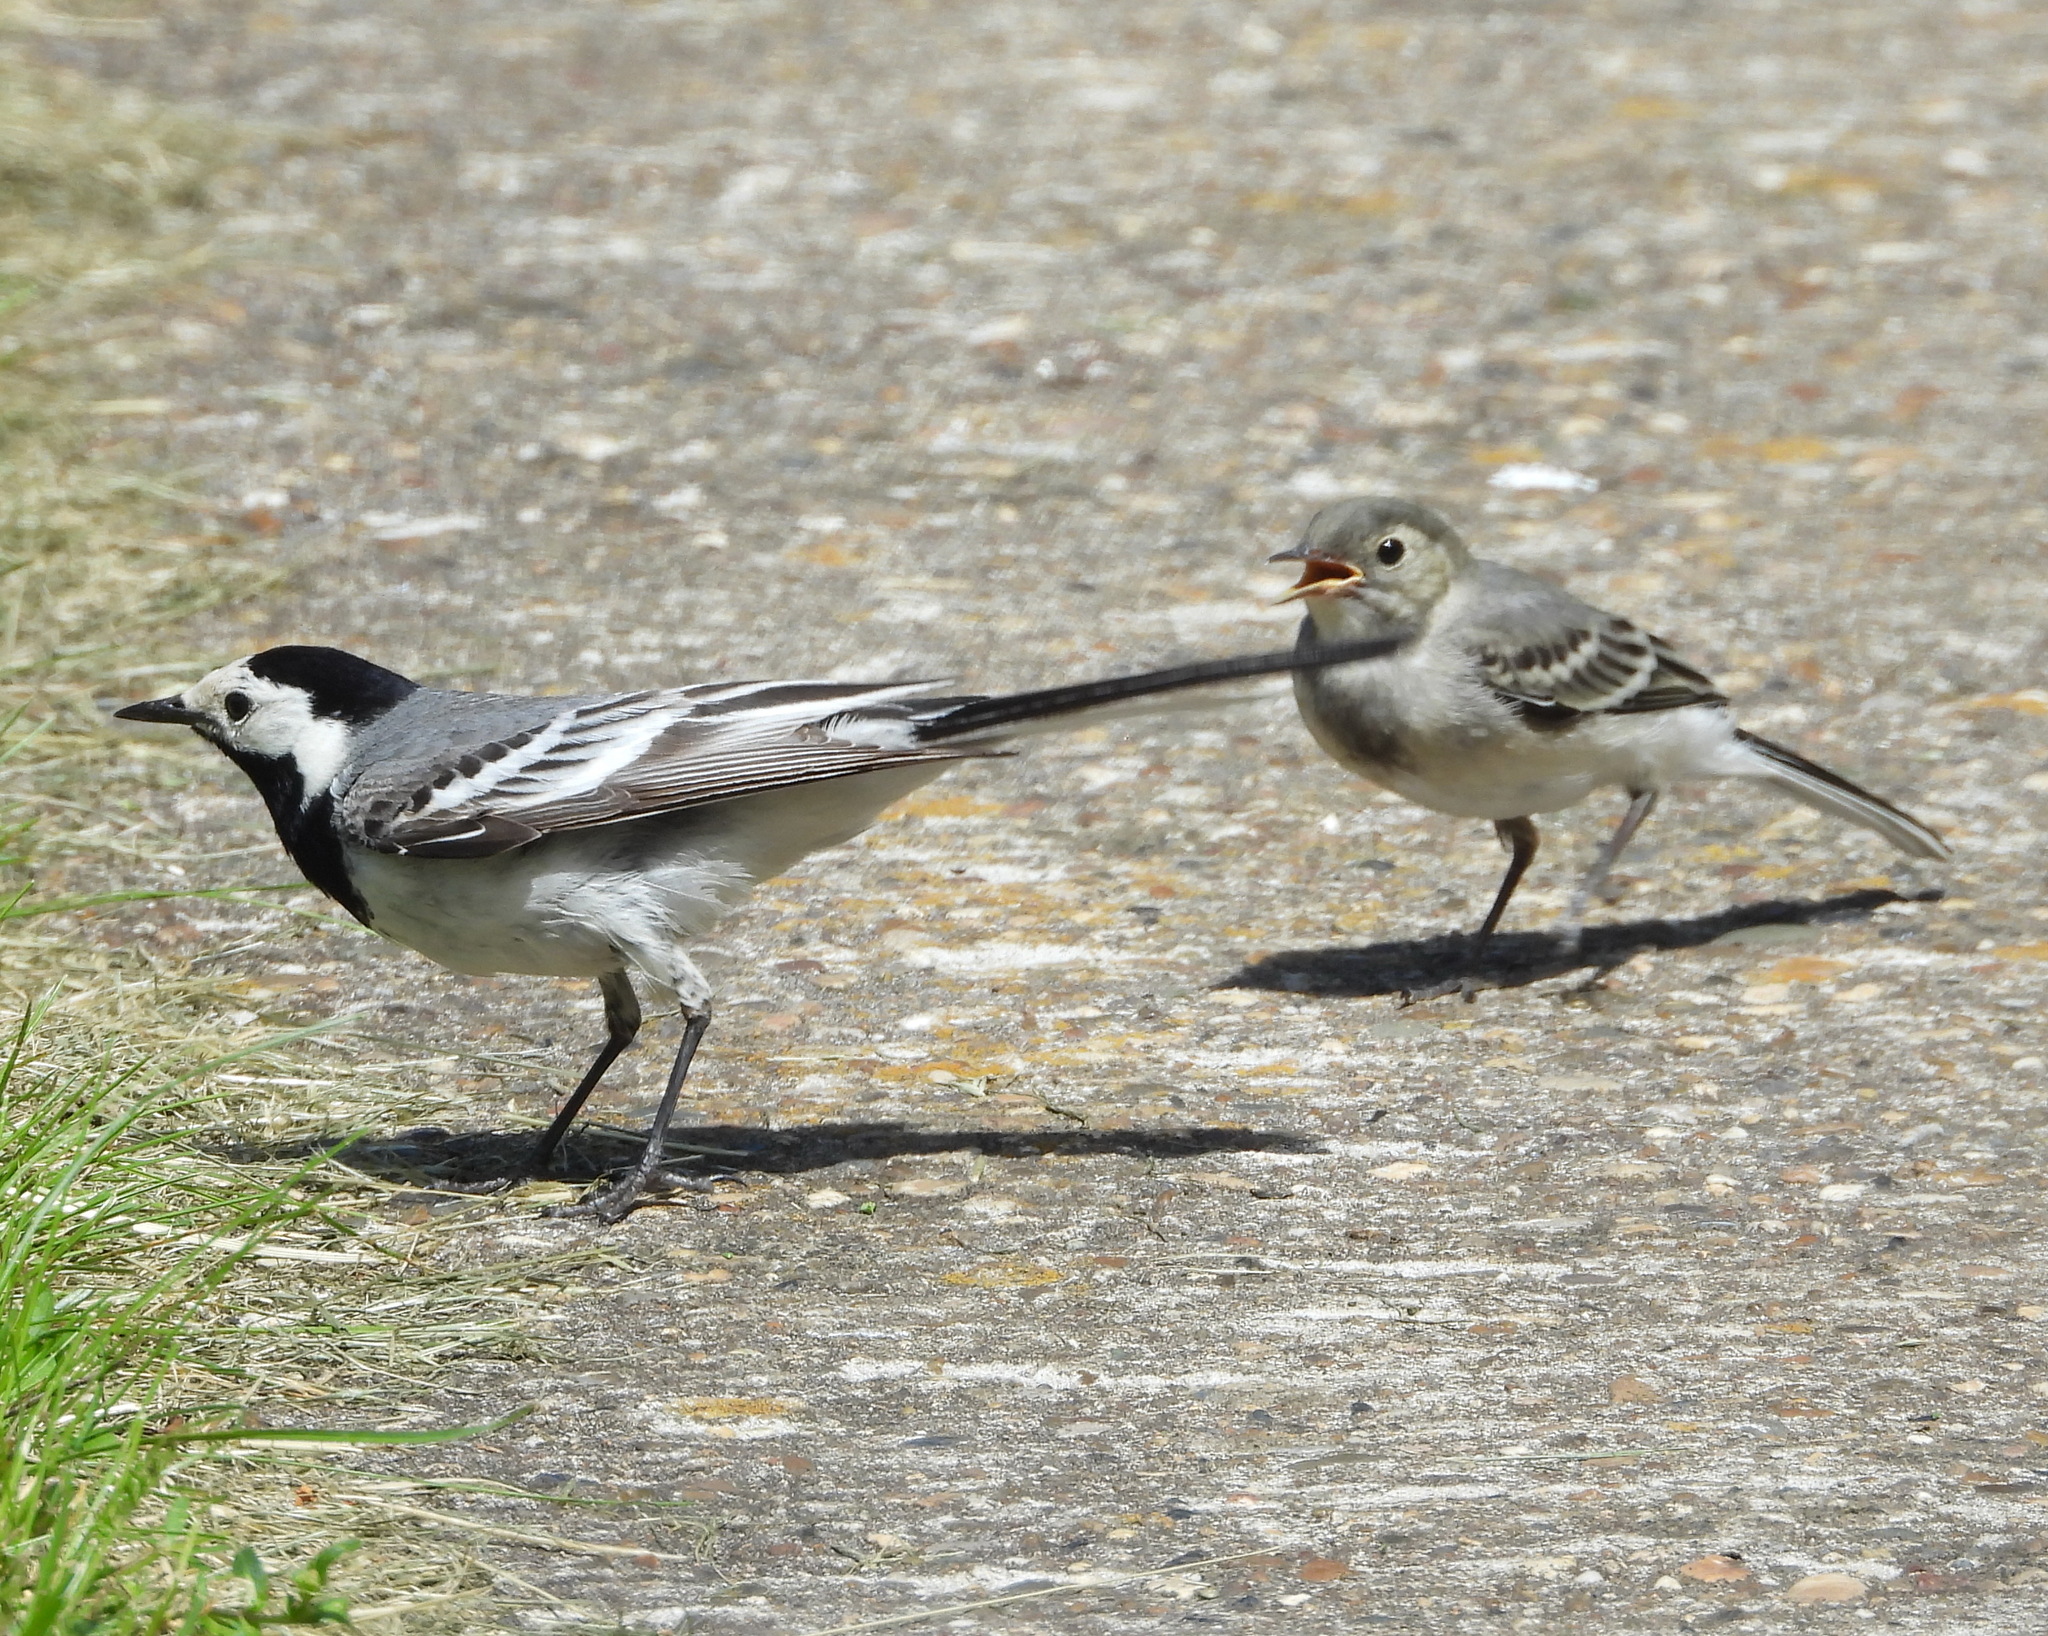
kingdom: Animalia
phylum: Chordata
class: Aves
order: Passeriformes
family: Motacillidae
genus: Motacilla
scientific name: Motacilla alba
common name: White wagtail
